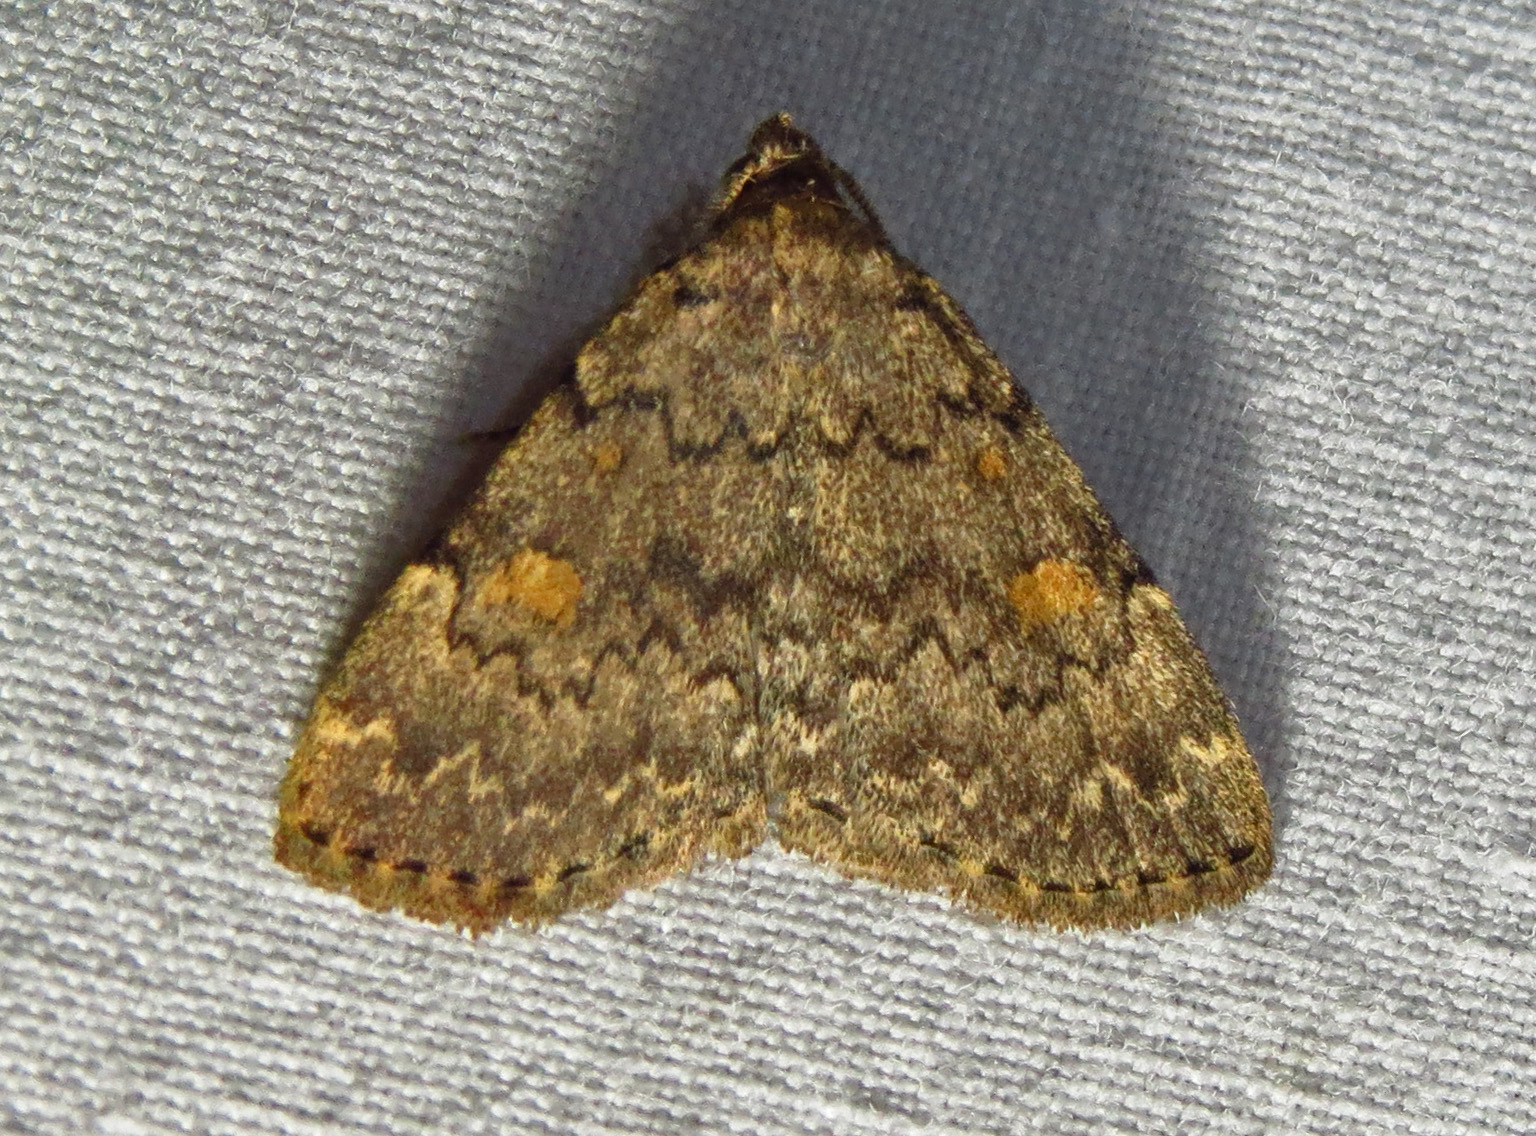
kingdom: Animalia
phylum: Arthropoda
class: Insecta
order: Lepidoptera
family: Erebidae
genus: Idia
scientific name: Idia aemula
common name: Common idia moth
